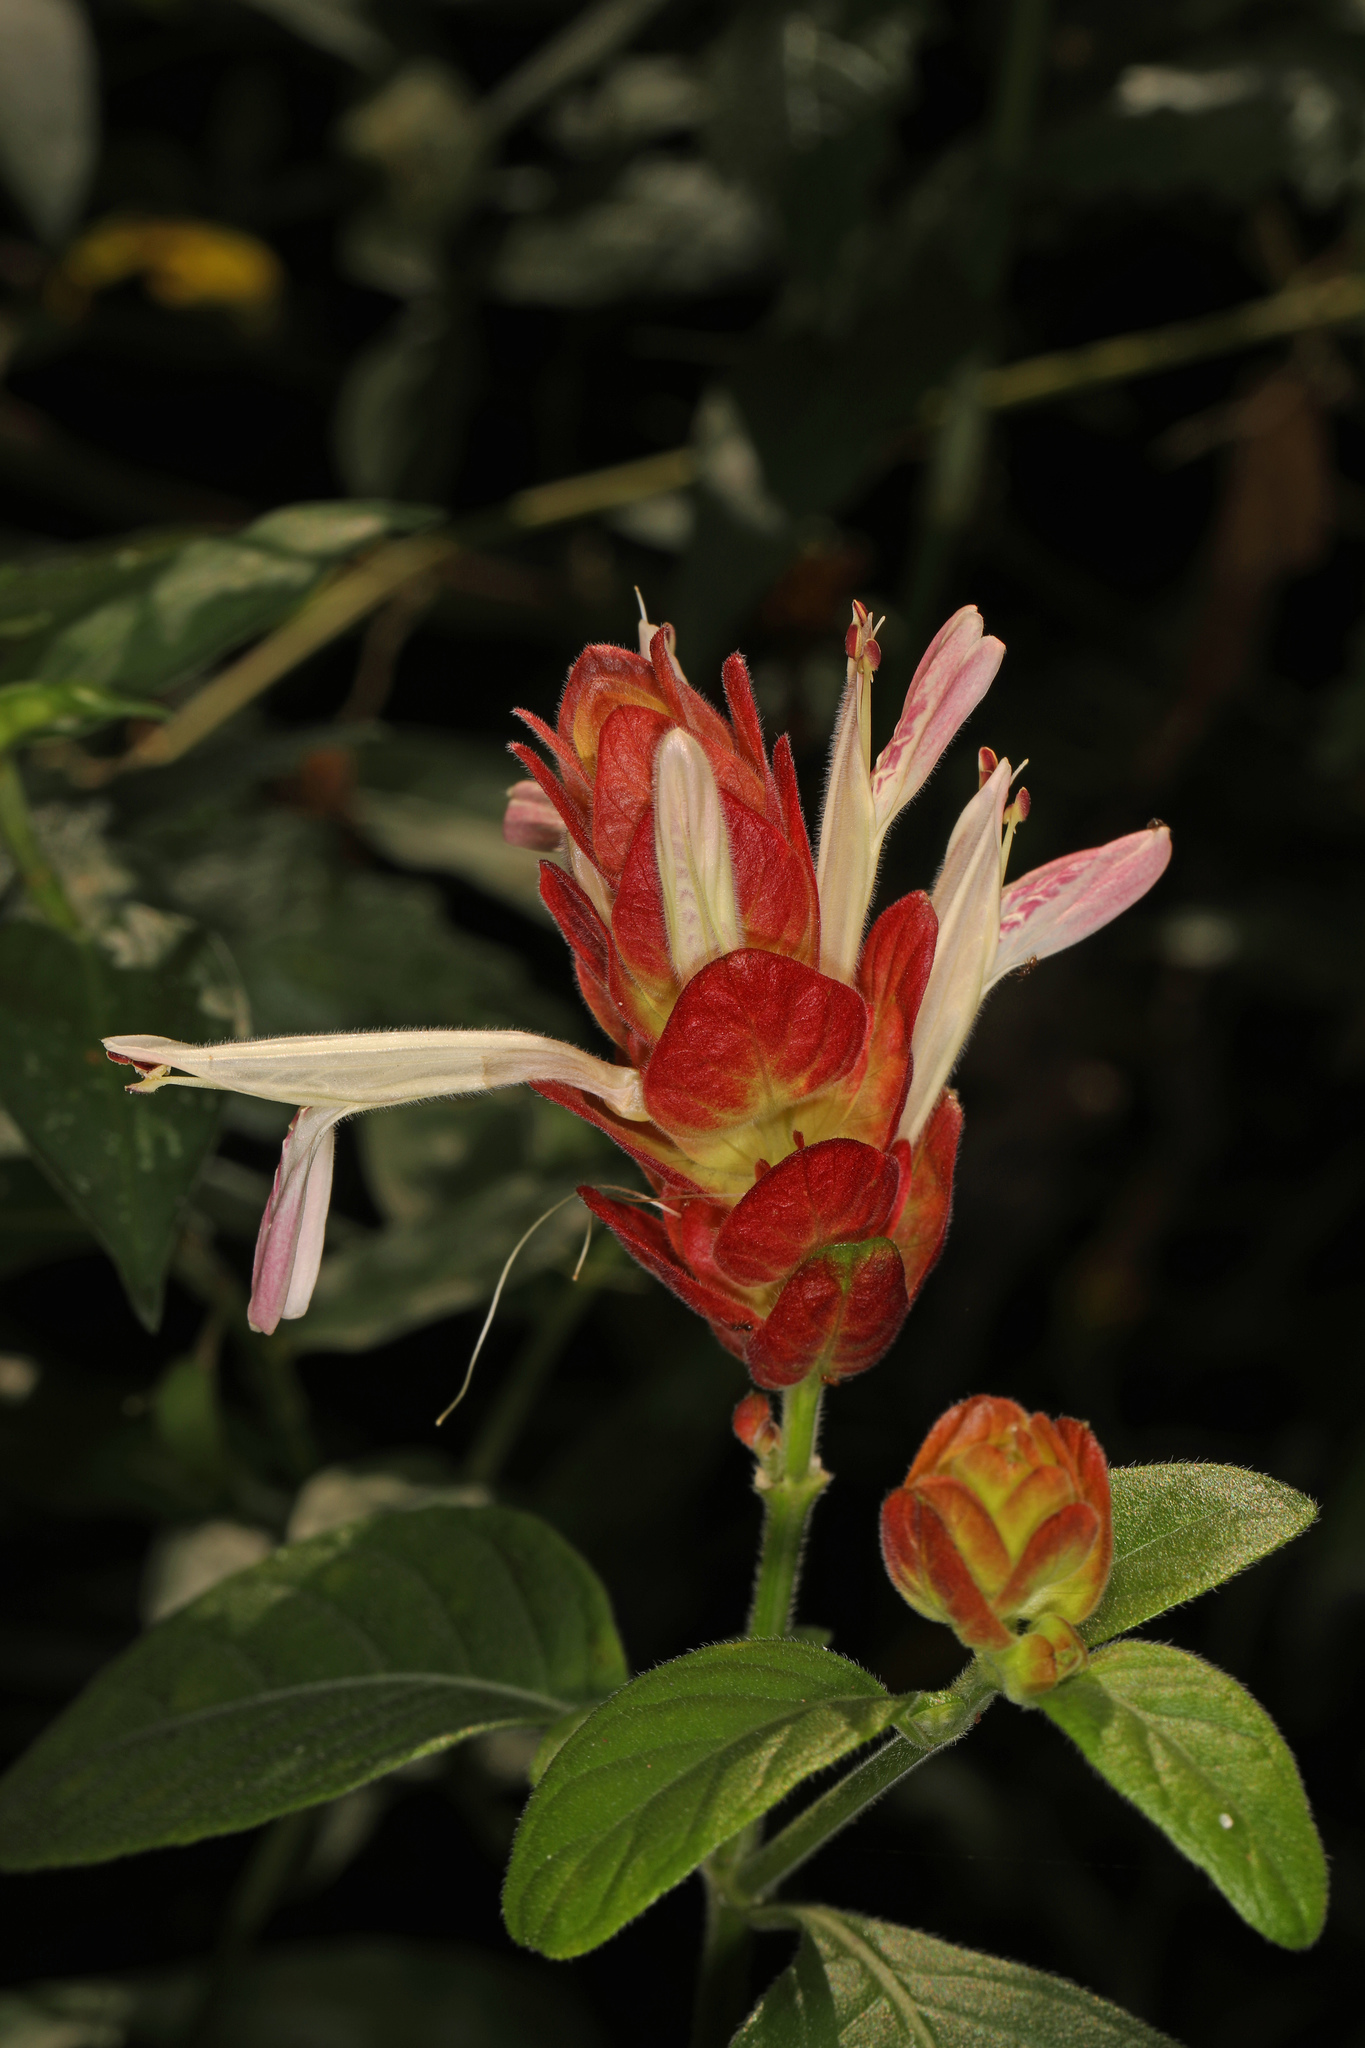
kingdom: Plantae
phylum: Tracheophyta
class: Magnoliopsida
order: Lamiales
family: Acanthaceae
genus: Justicia
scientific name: Justicia brandegeeana
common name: Shrimpplant
